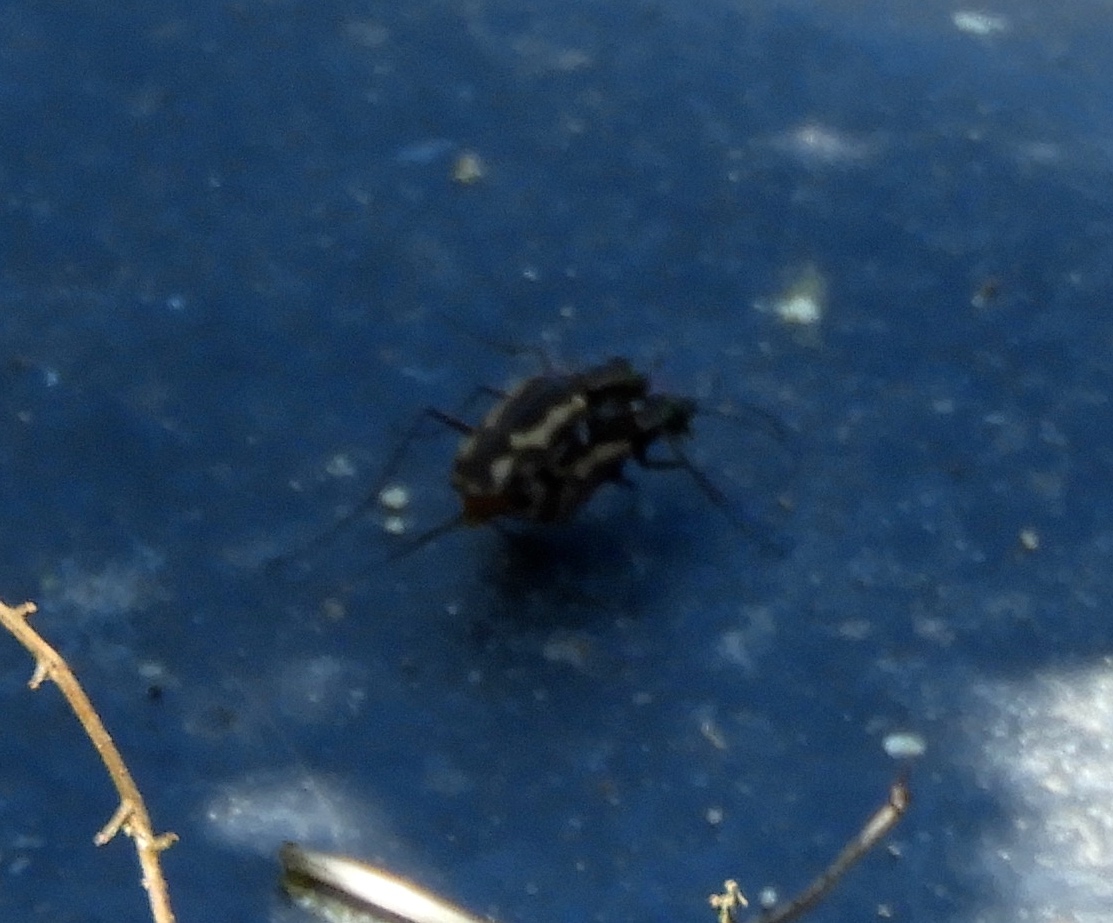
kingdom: Animalia
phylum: Arthropoda
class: Insecta
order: Coleoptera
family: Carabidae
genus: Cicindela
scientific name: Cicindela hydrophoba
